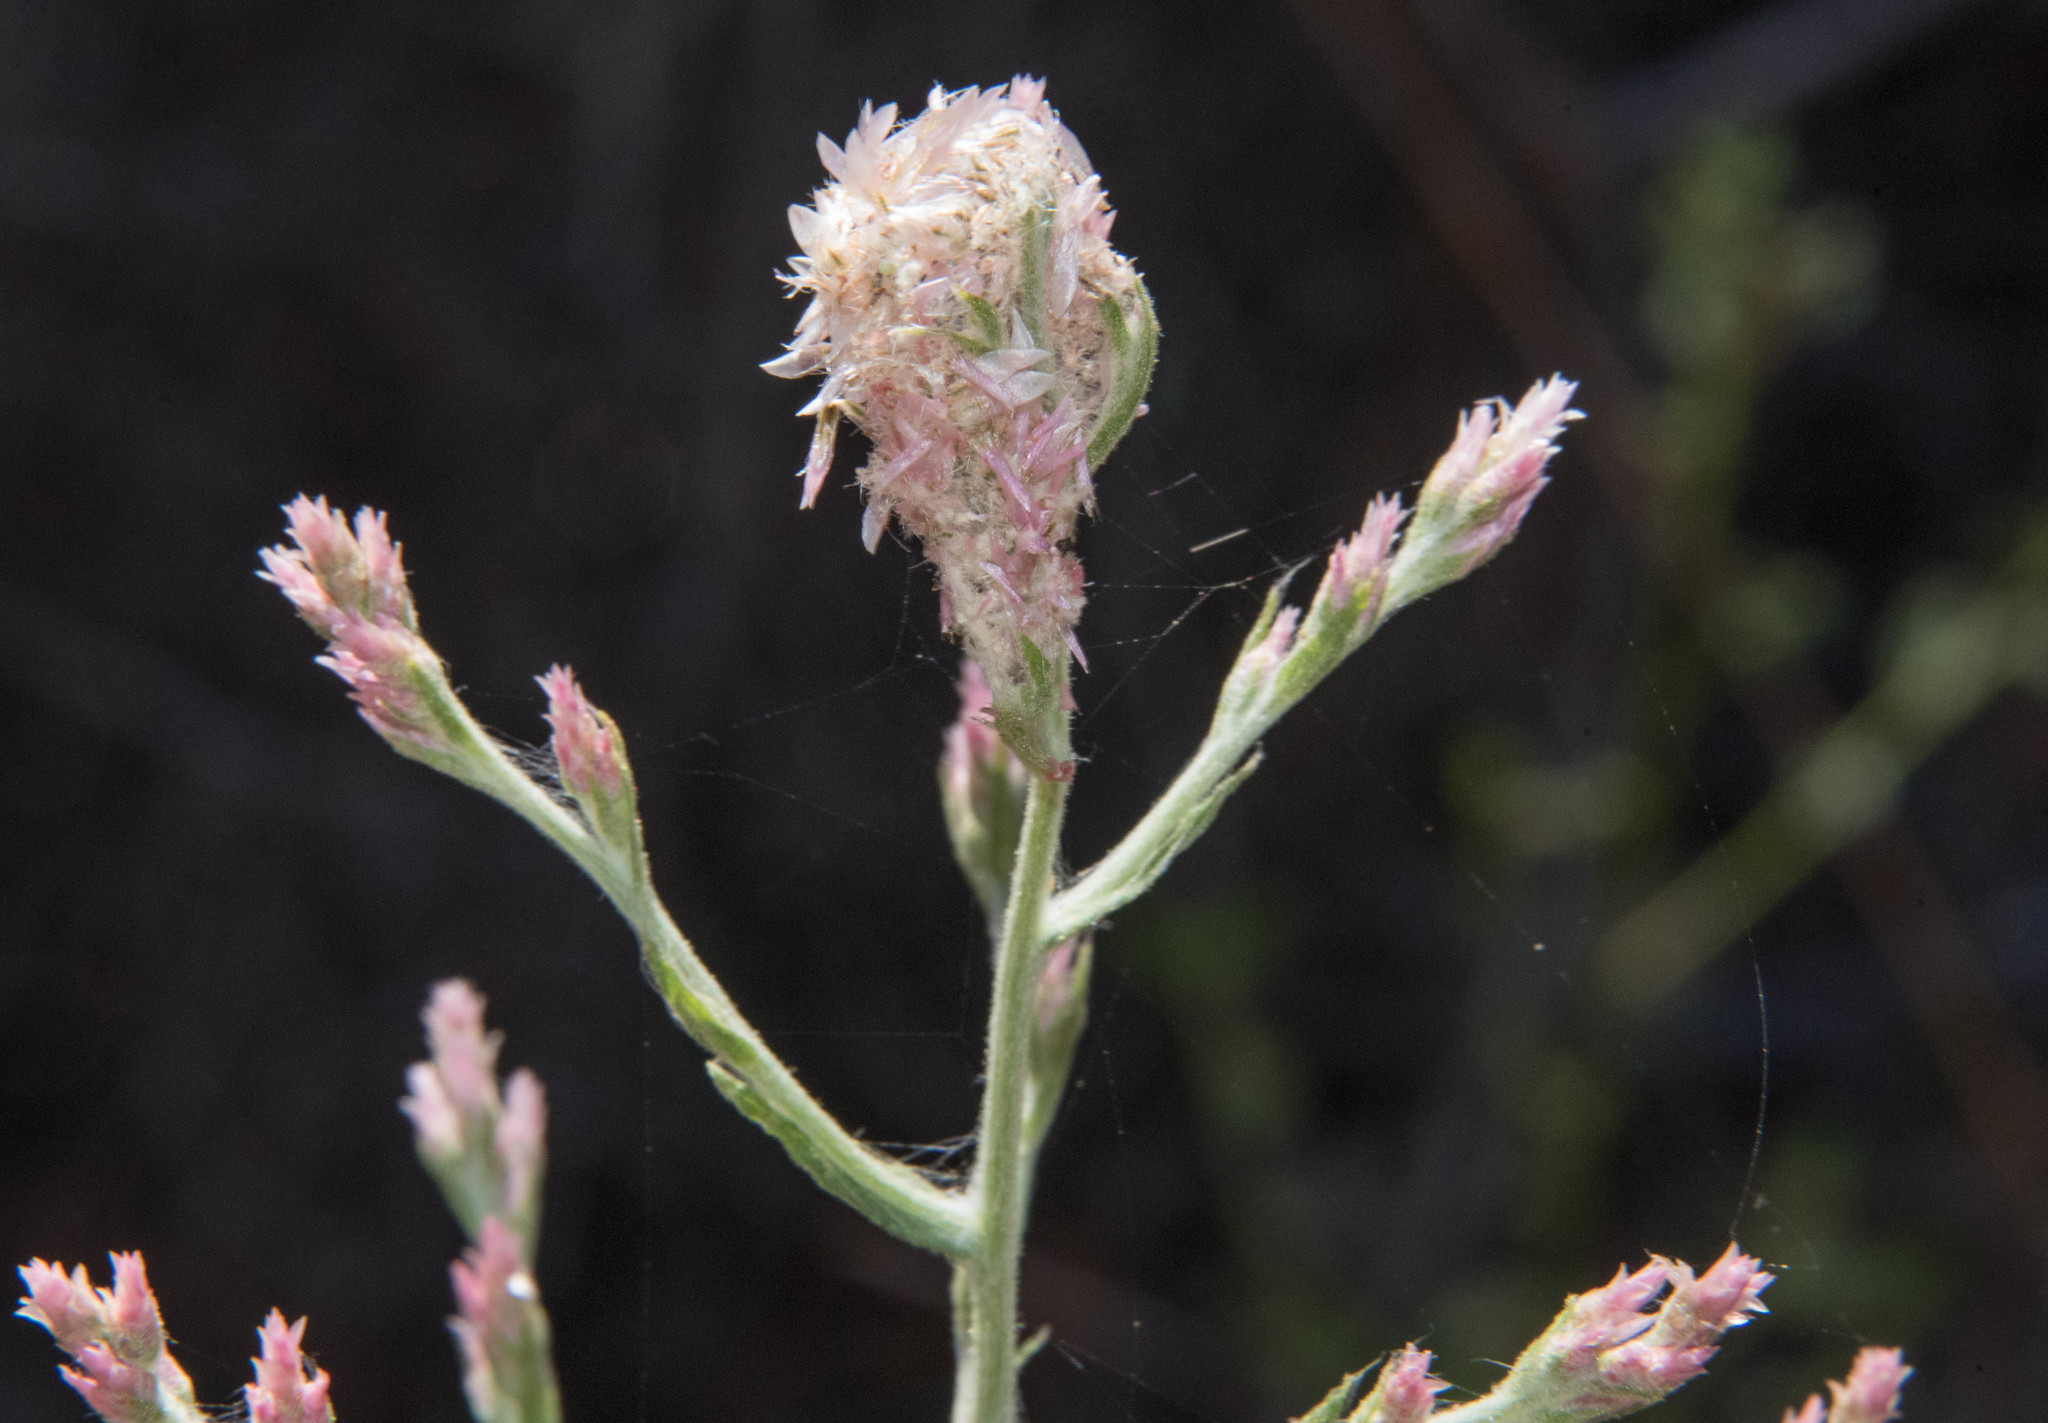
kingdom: Plantae
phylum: Tracheophyta
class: Magnoliopsida
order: Asterales
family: Asteraceae
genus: Pseudognaphalium
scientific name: Pseudognaphalium ramosissimum
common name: Pink rabbit-tobacco
